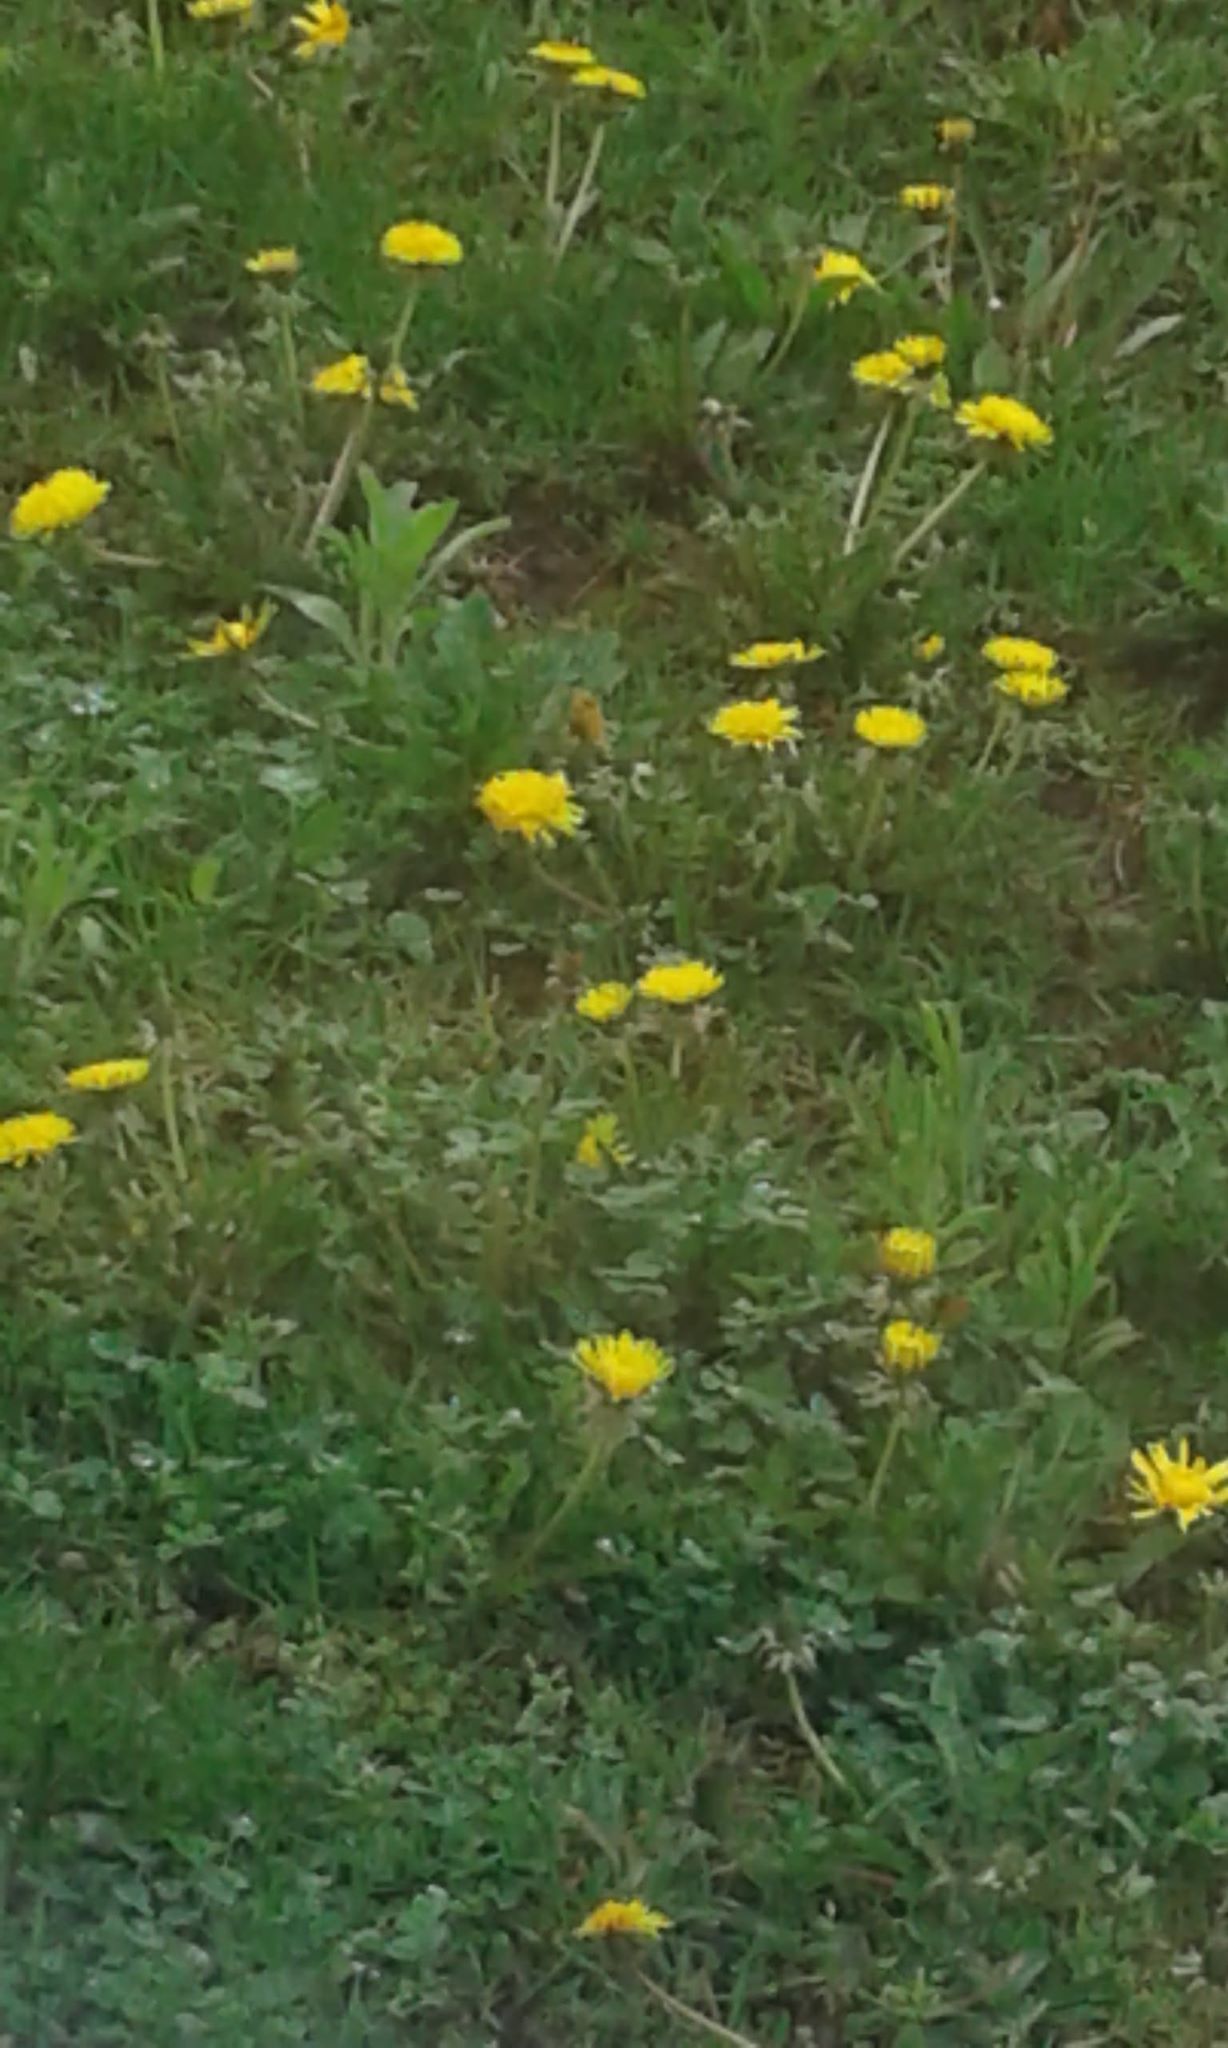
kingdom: Plantae
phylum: Tracheophyta
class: Magnoliopsida
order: Asterales
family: Asteraceae
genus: Taraxacum
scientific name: Taraxacum officinale
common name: Common dandelion
